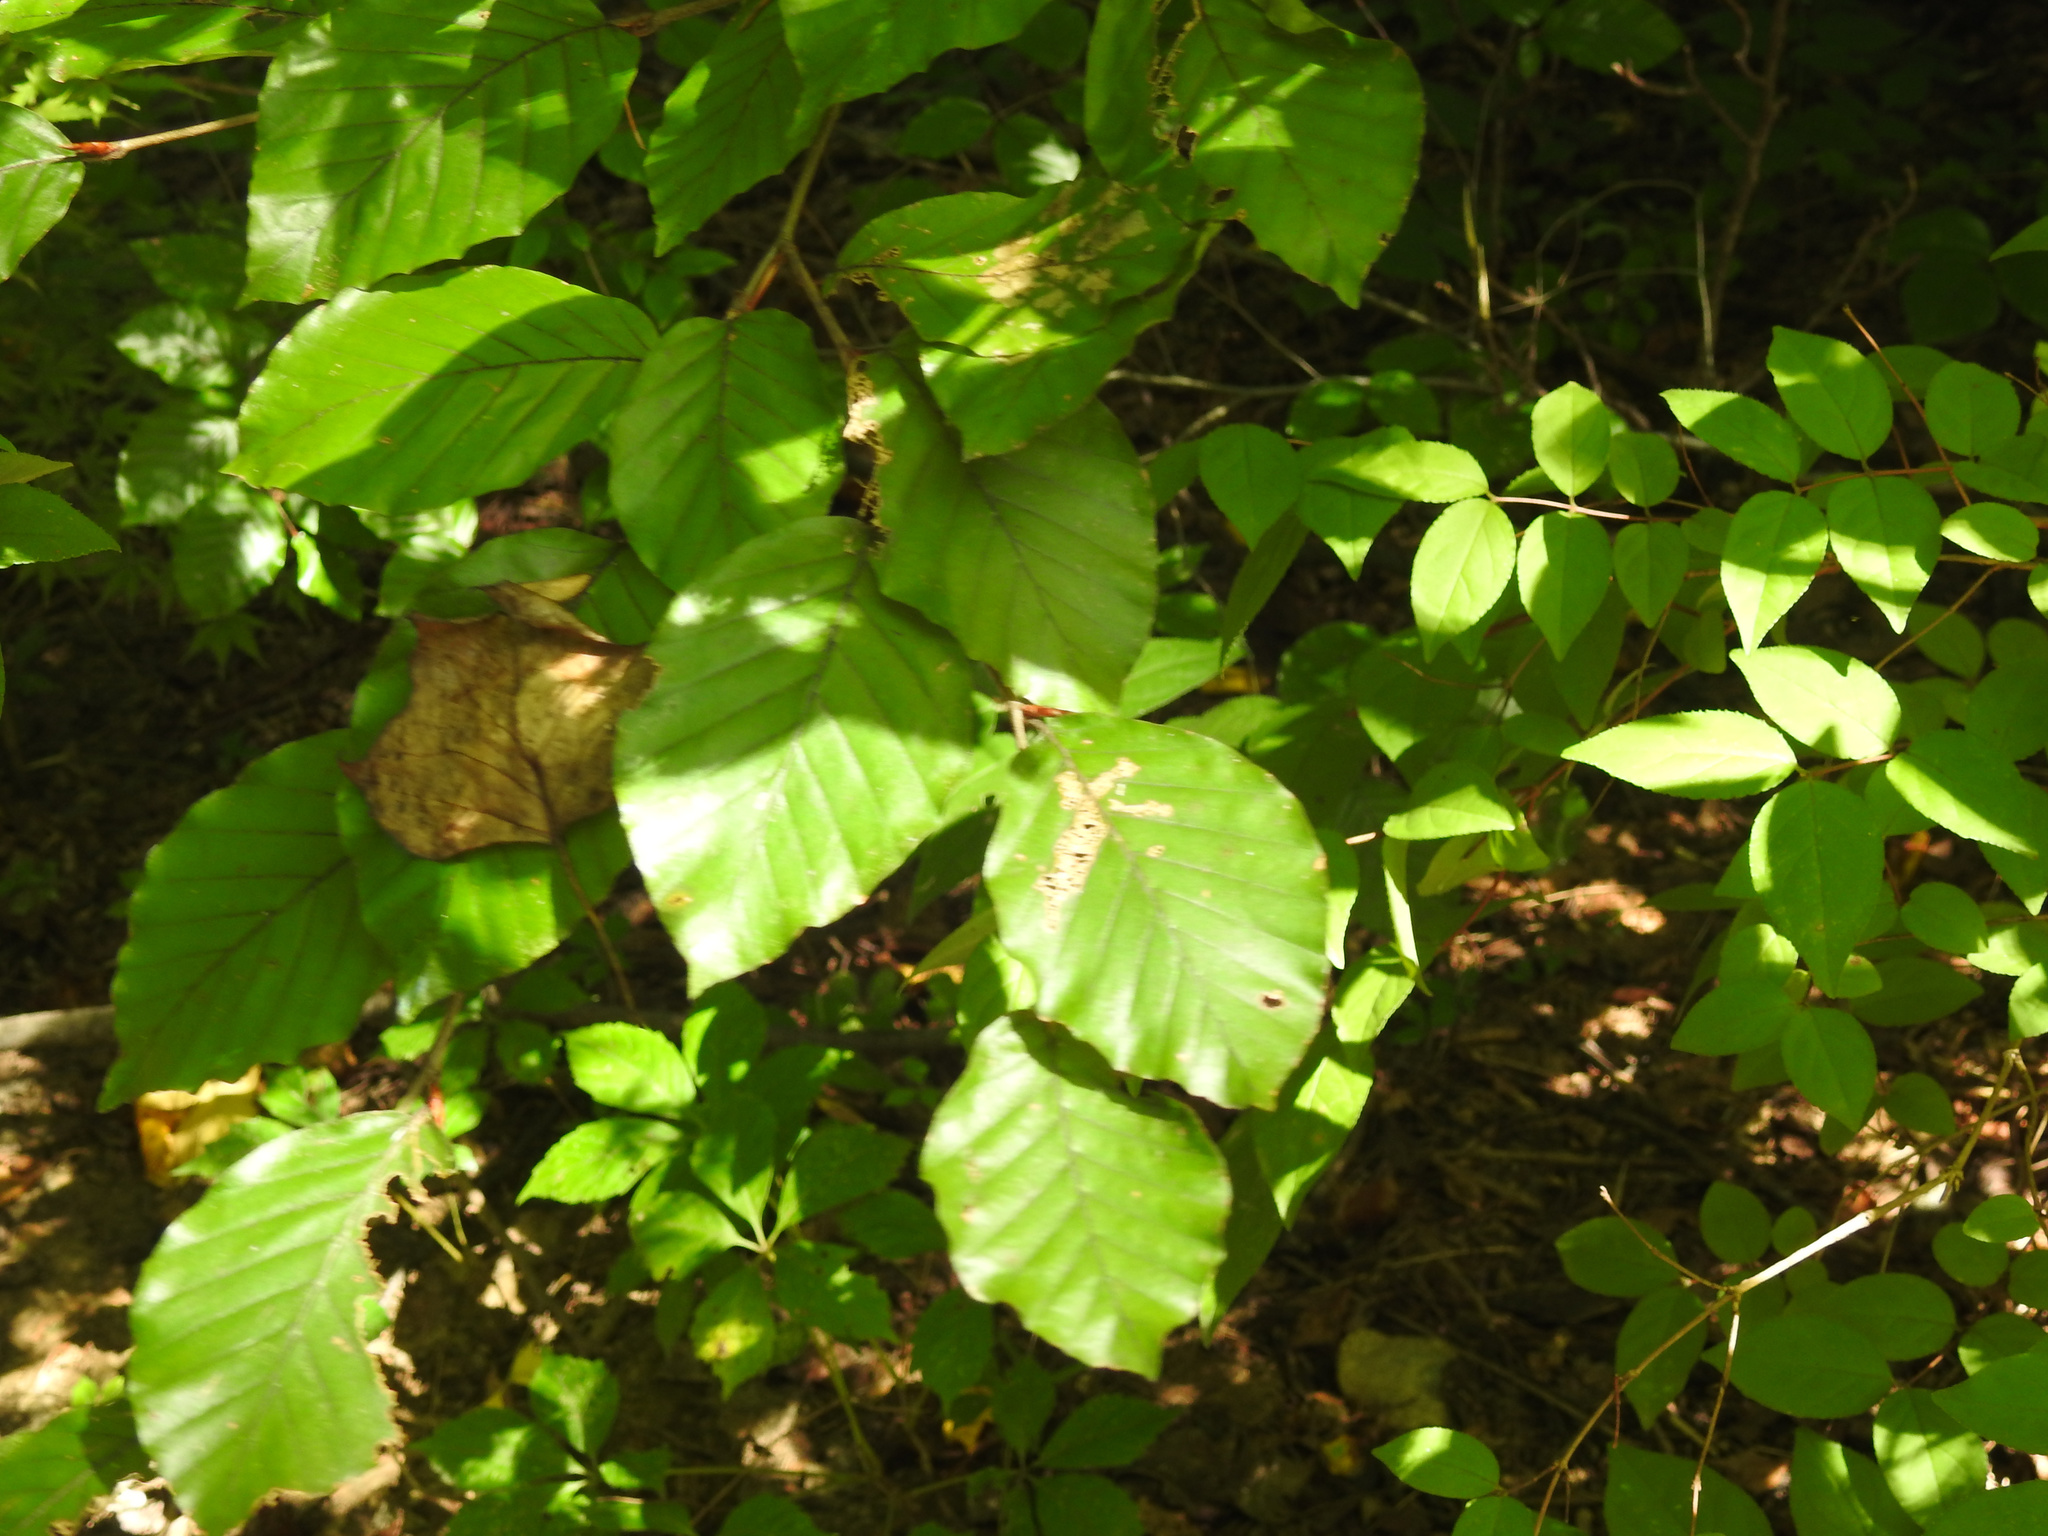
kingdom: Plantae
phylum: Tracheophyta
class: Magnoliopsida
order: Fagales
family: Fagaceae
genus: Fagus
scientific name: Fagus sylvatica
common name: Beech
